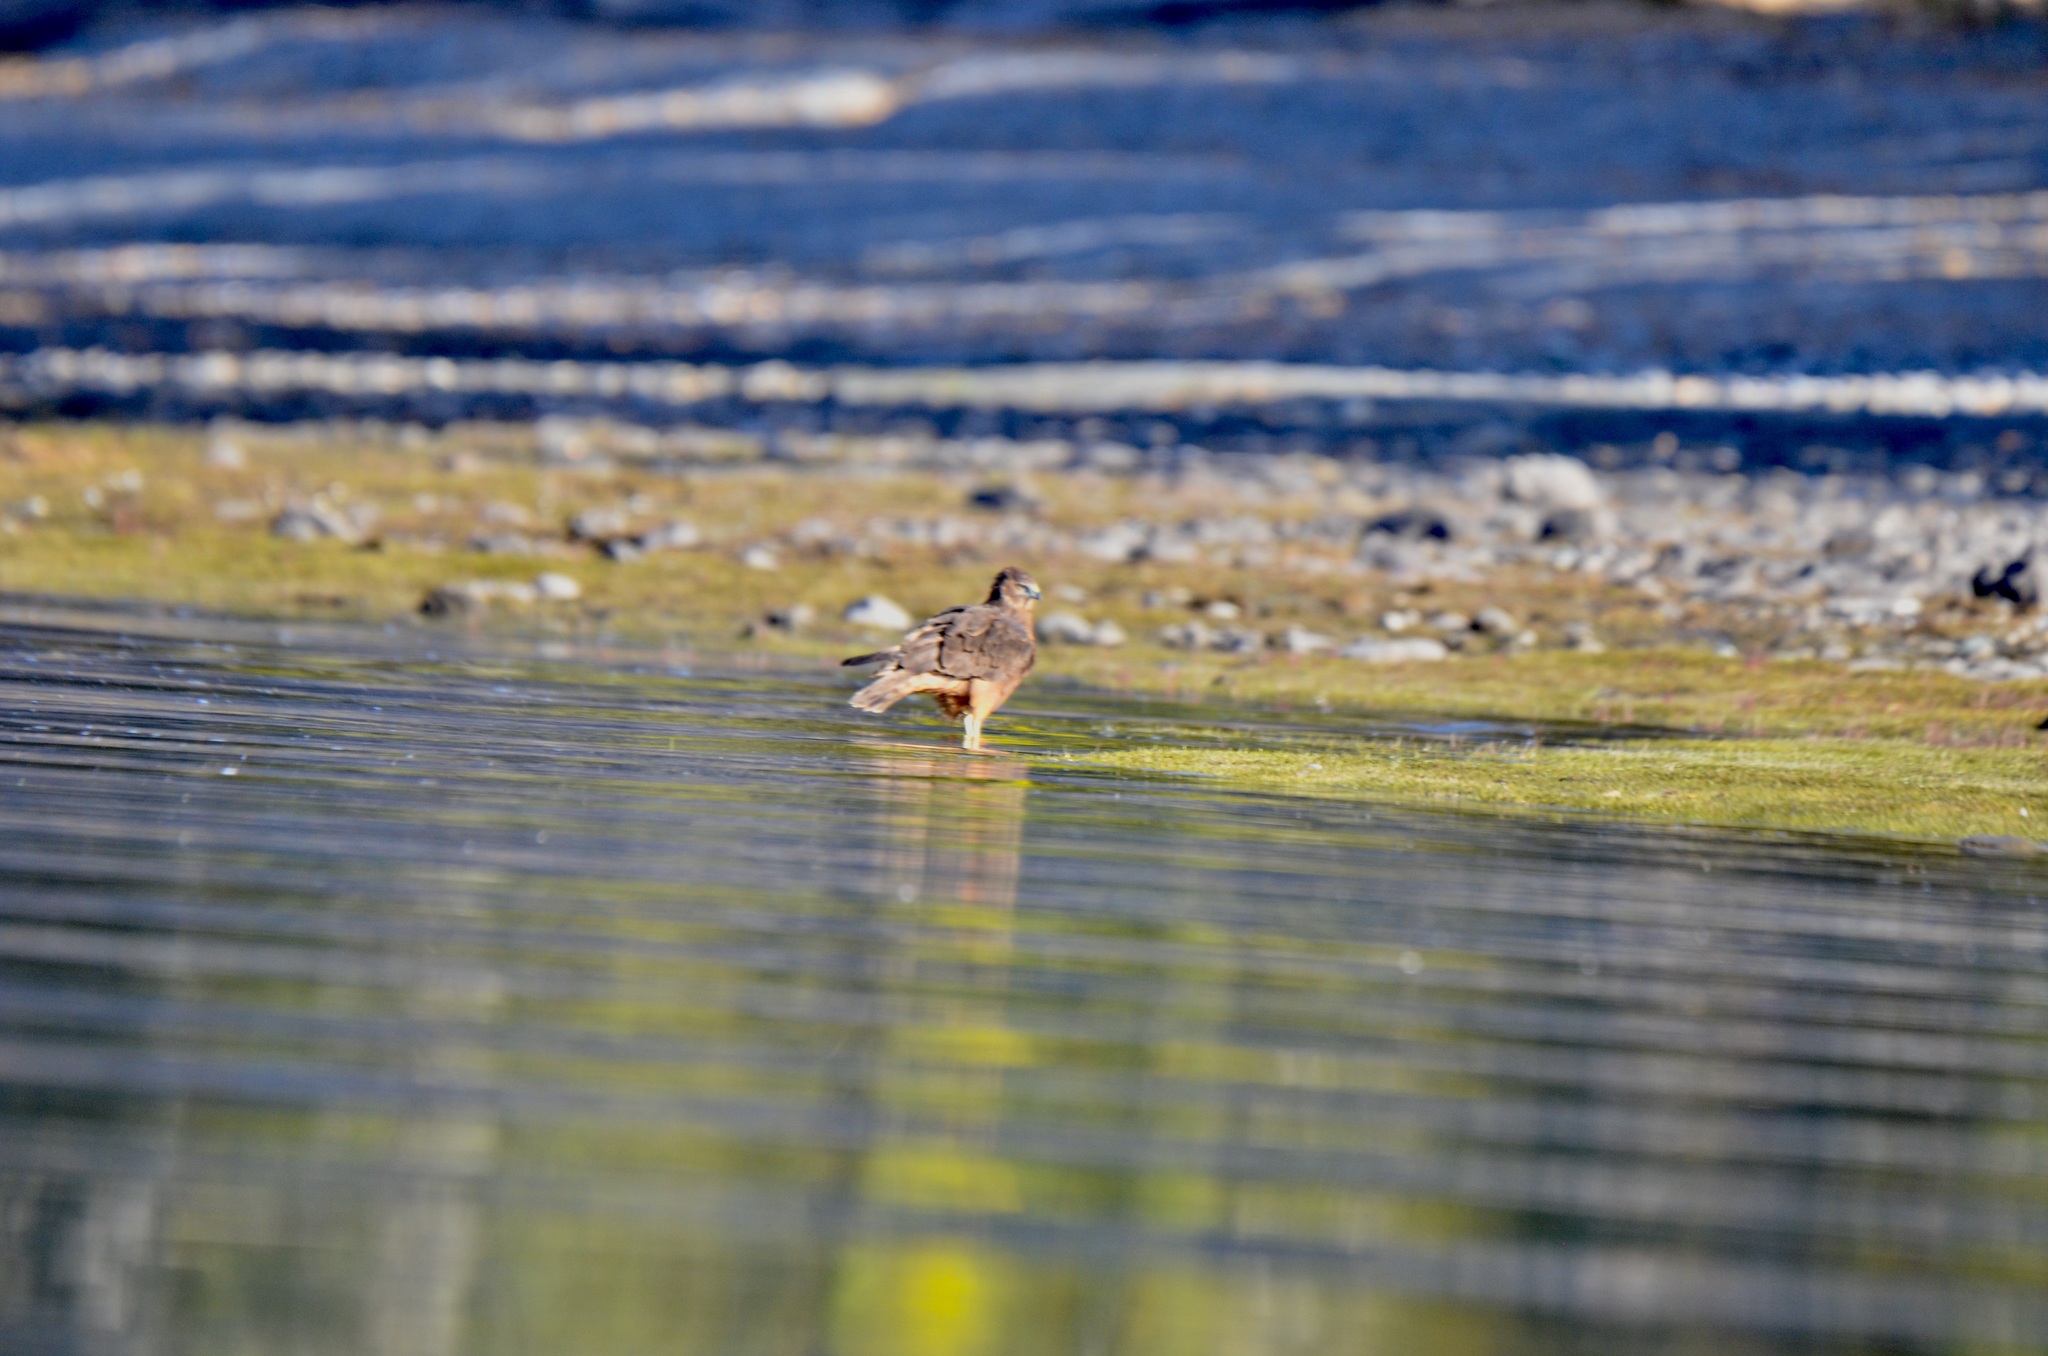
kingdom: Animalia
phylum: Chordata
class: Aves
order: Accipitriformes
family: Accipitridae
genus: Circus
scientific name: Circus approximans
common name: Swamp harrier
